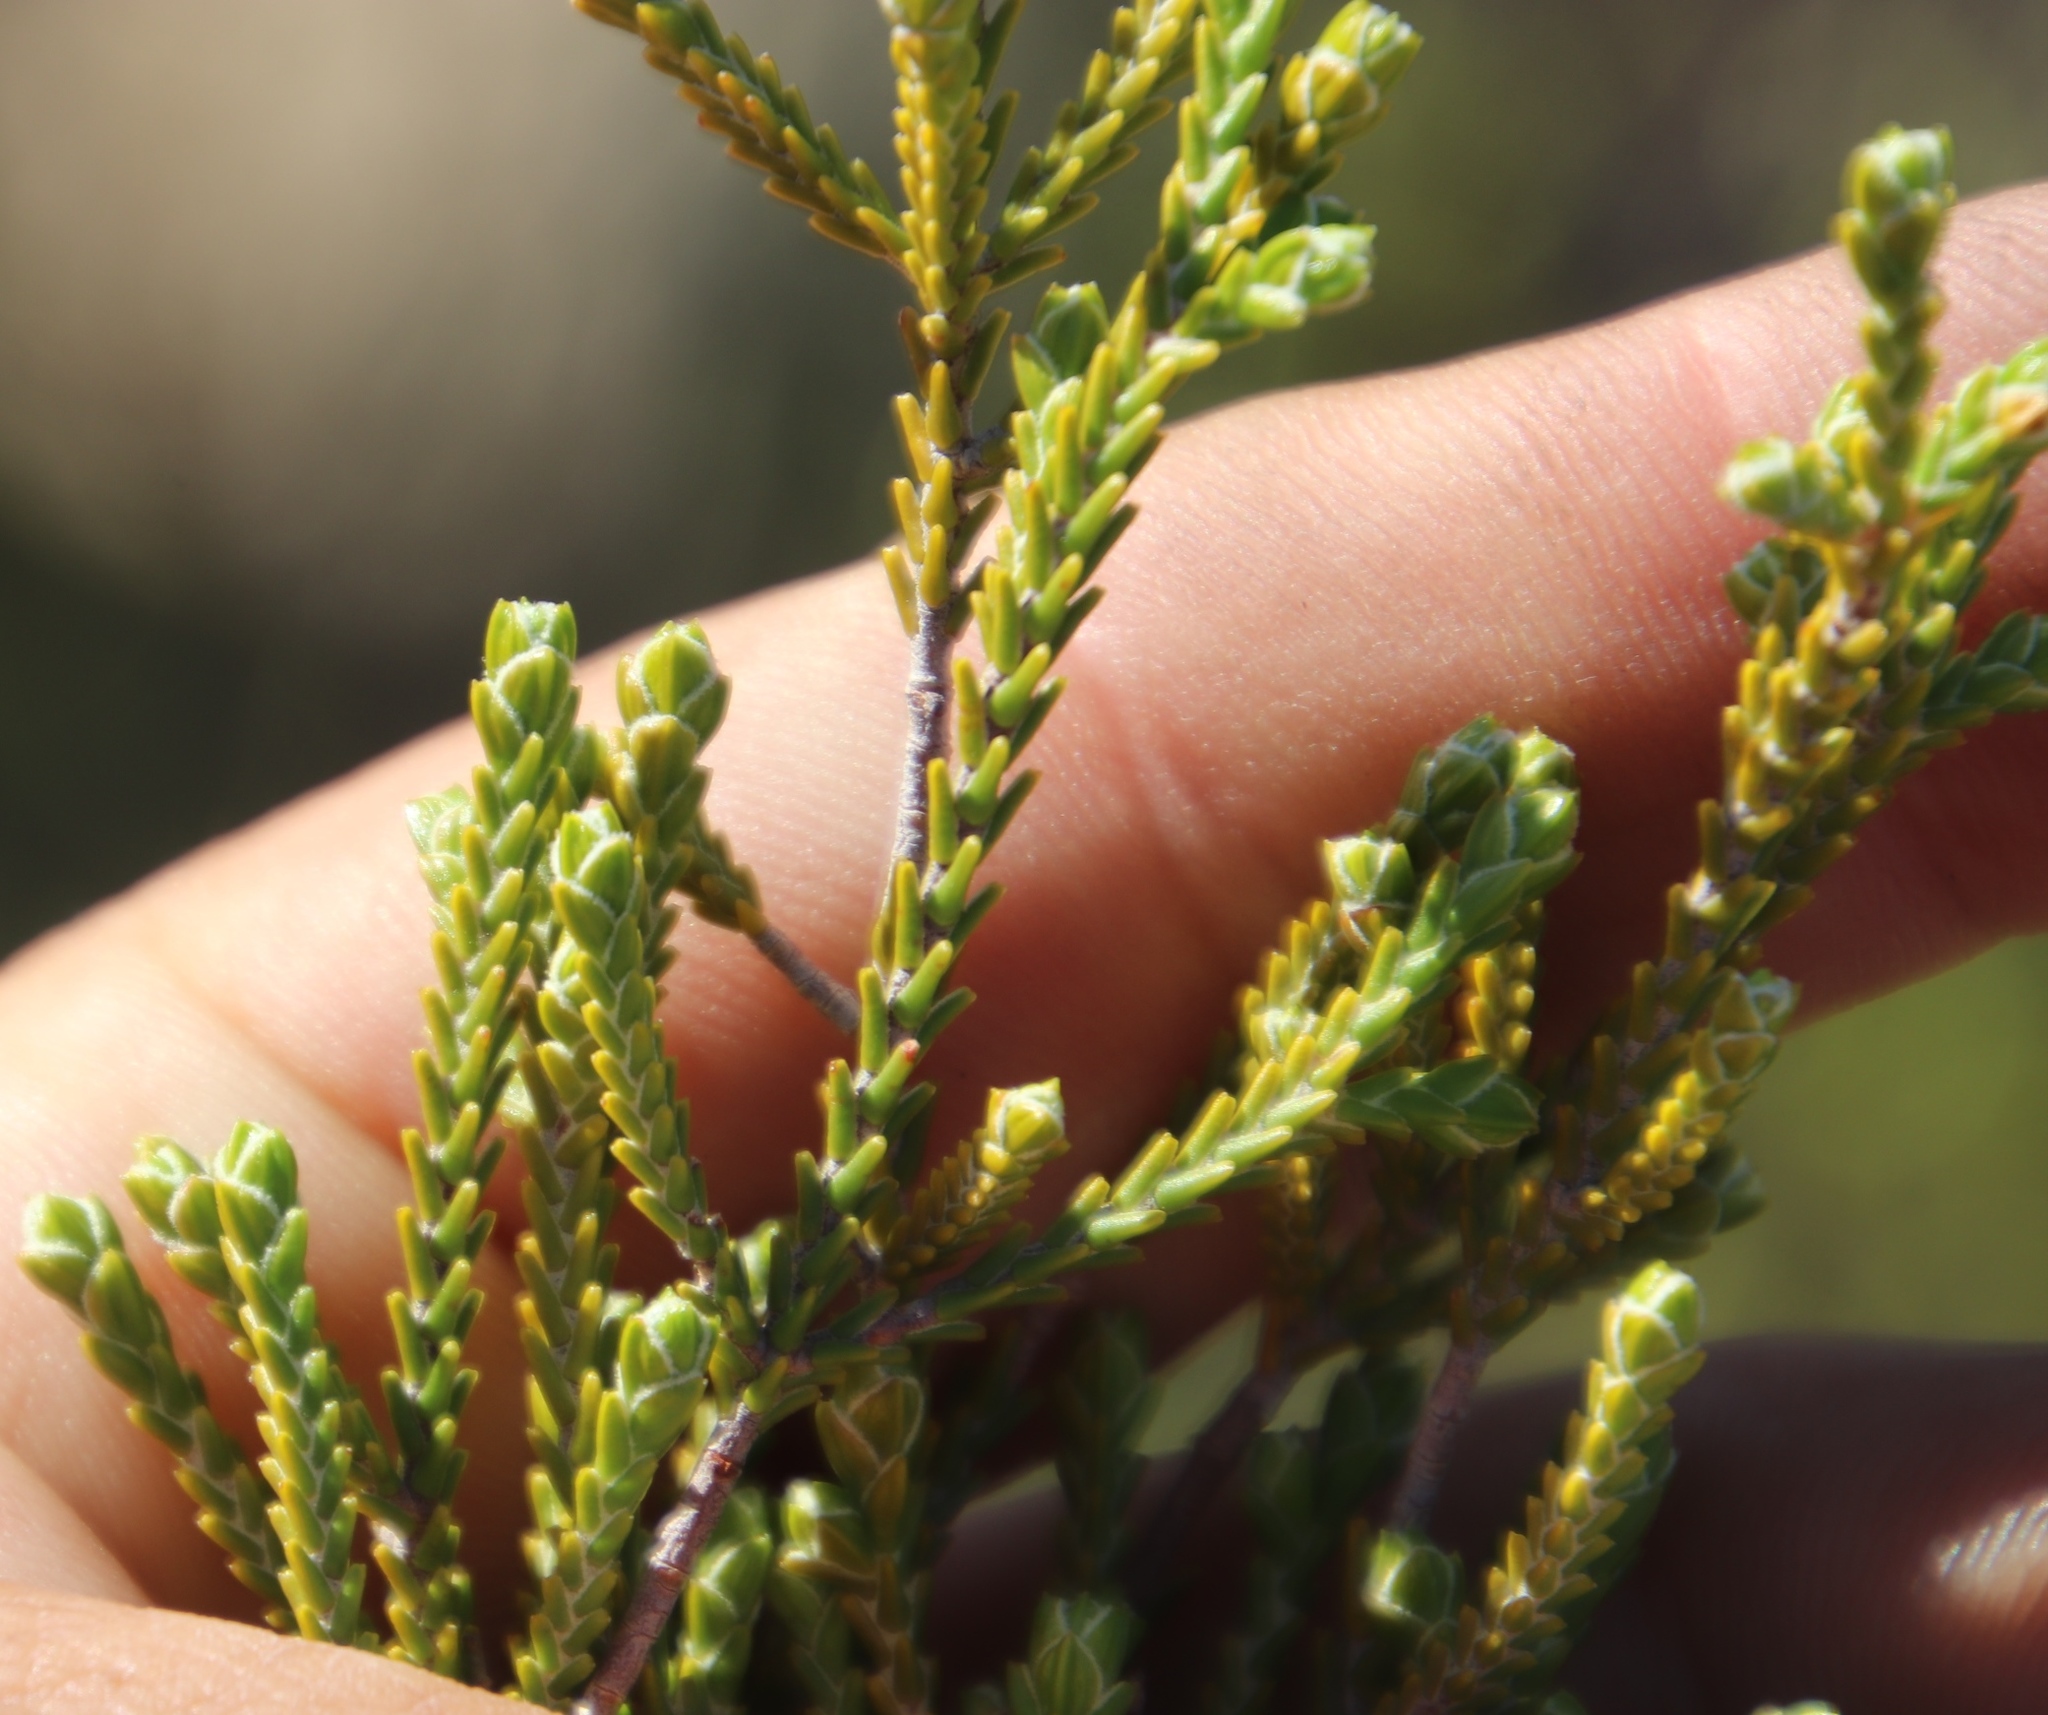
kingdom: Plantae
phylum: Tracheophyta
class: Magnoliopsida
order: Malvales
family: Thymelaeaceae
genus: Passerina
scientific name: Passerina truncata
